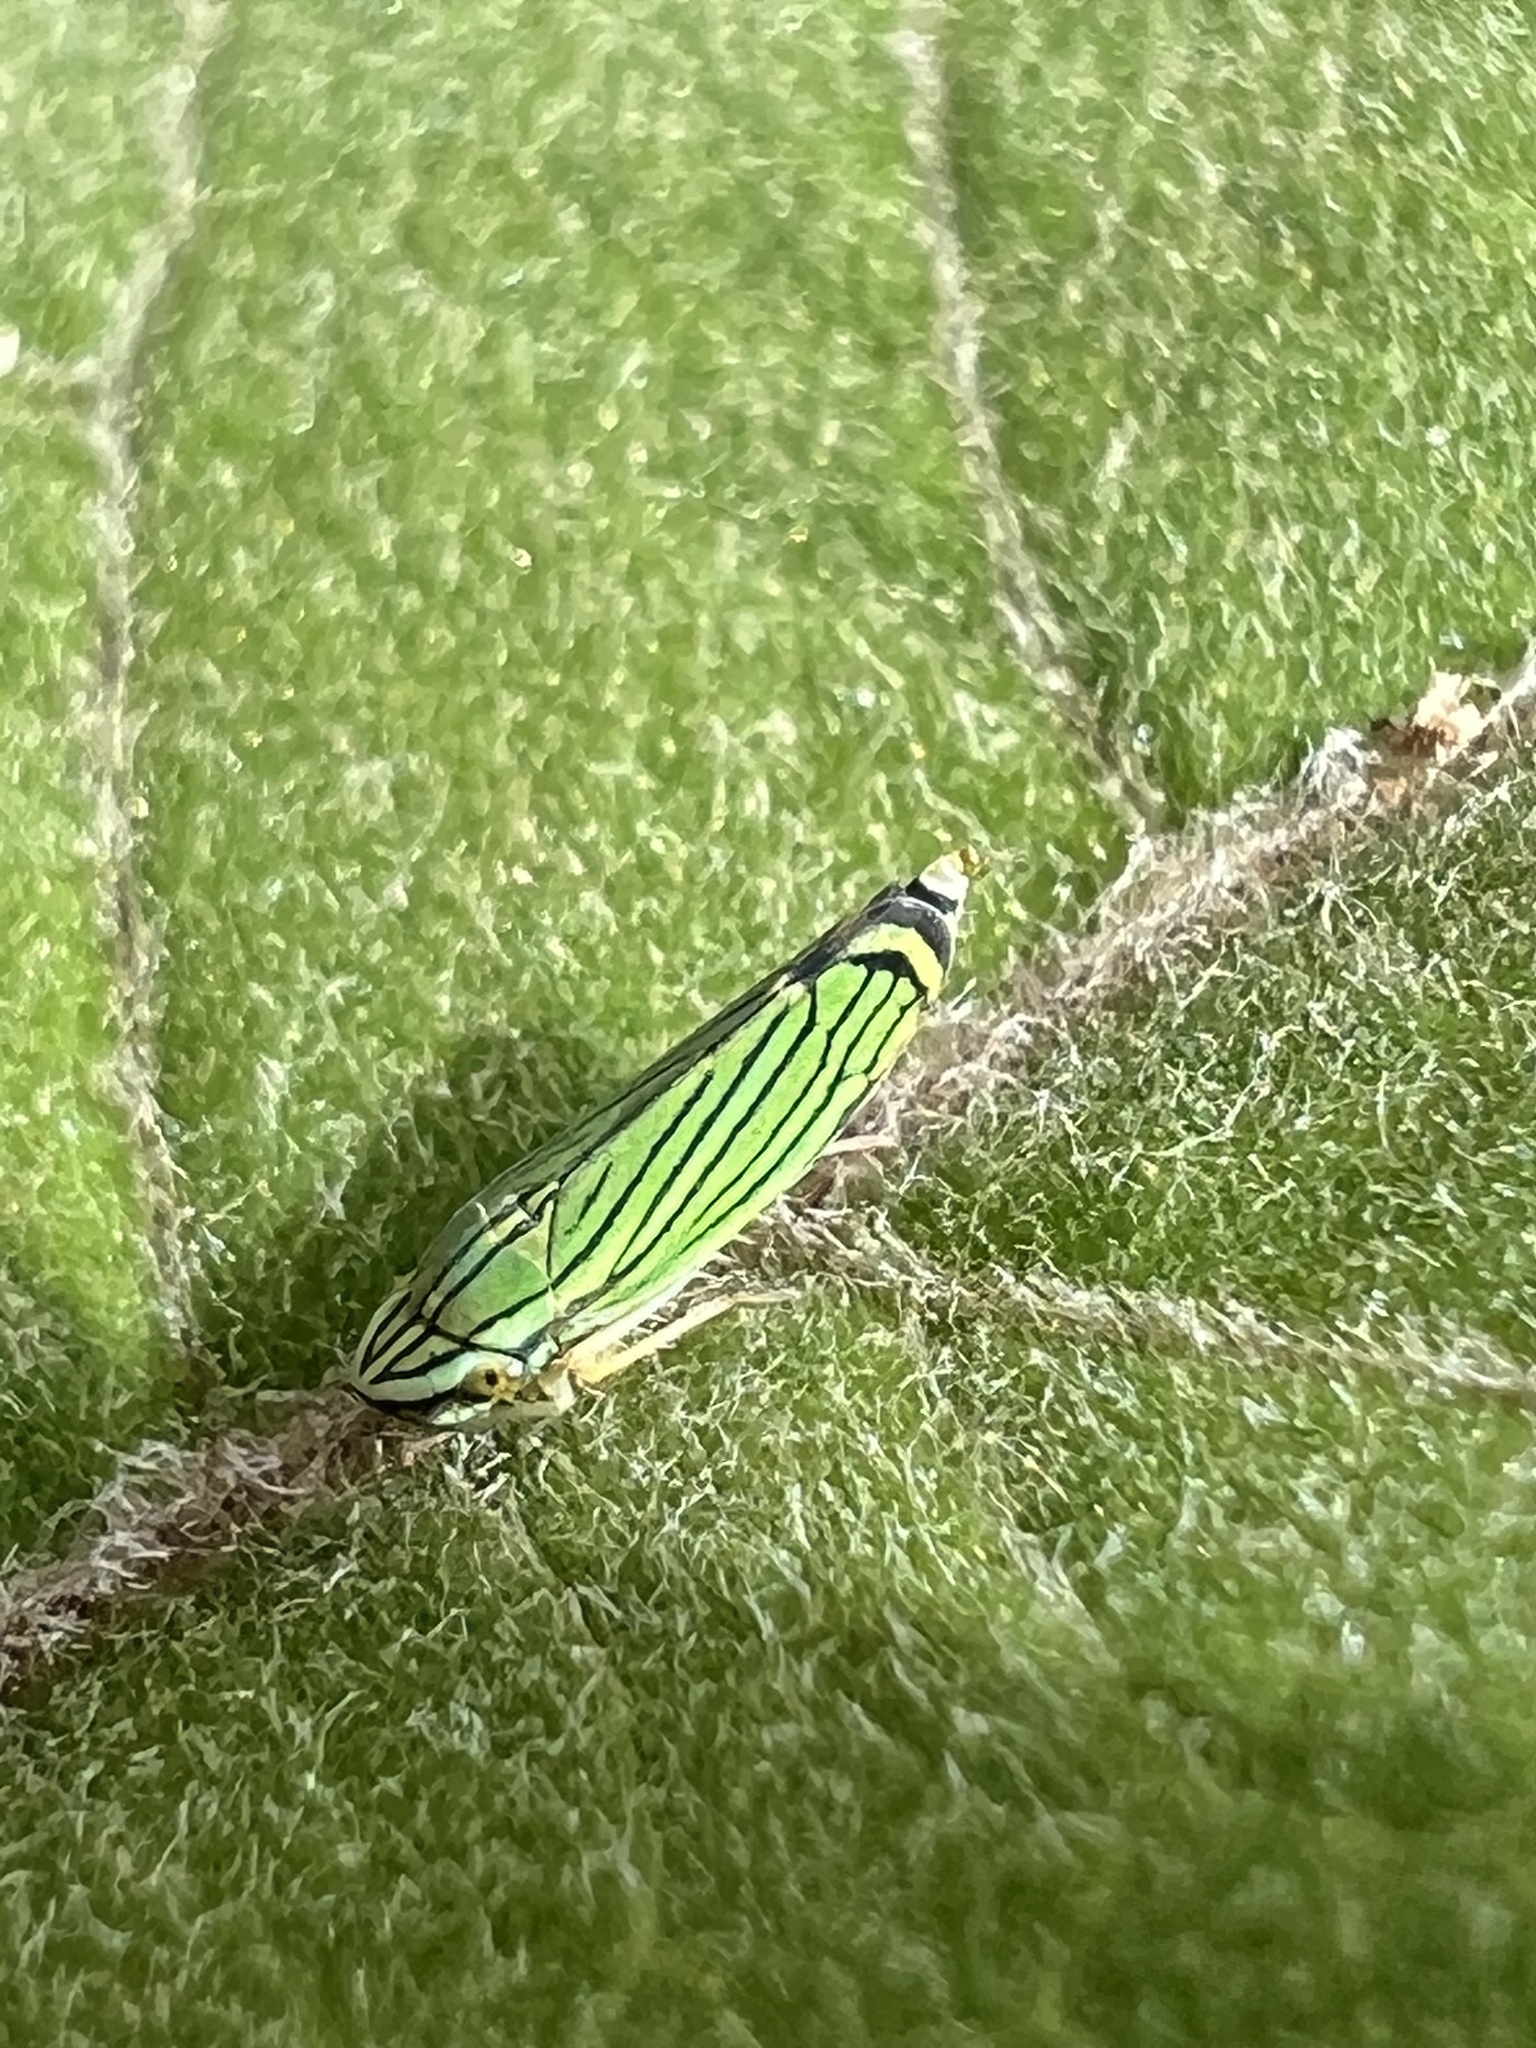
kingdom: Animalia
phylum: Arthropoda
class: Insecta
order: Hemiptera
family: Cicadellidae
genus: Isogonalia
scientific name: Isogonalia sexlineata
